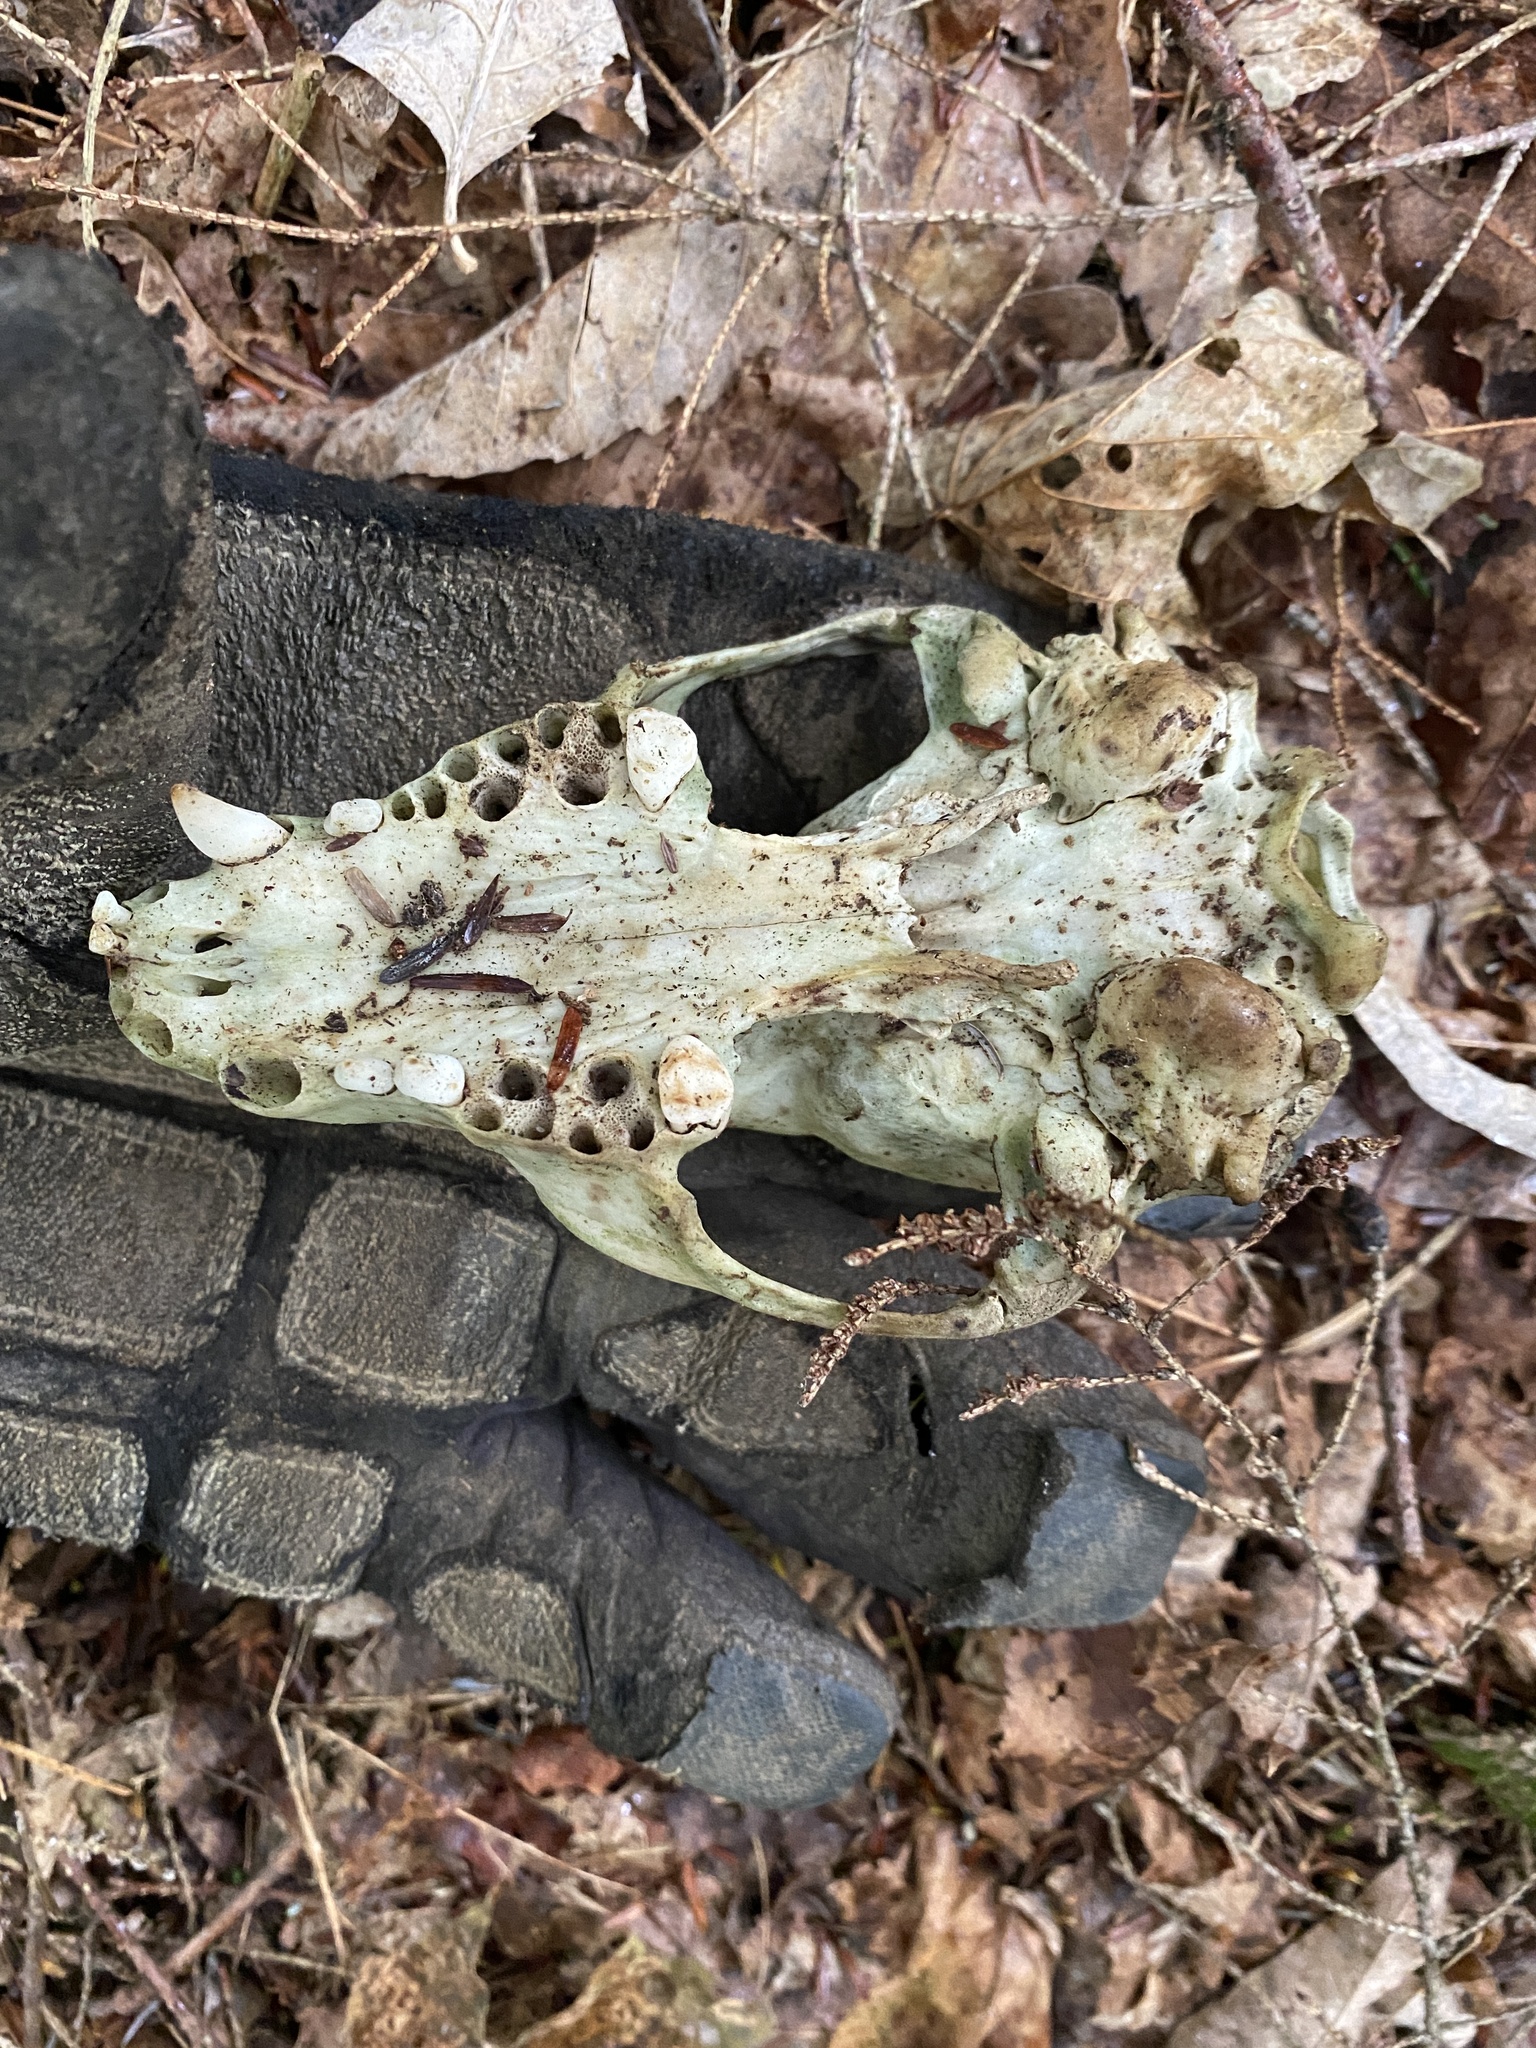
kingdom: Animalia
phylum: Chordata
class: Mammalia
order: Carnivora
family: Procyonidae
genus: Procyon
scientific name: Procyon lotor
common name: Raccoon
